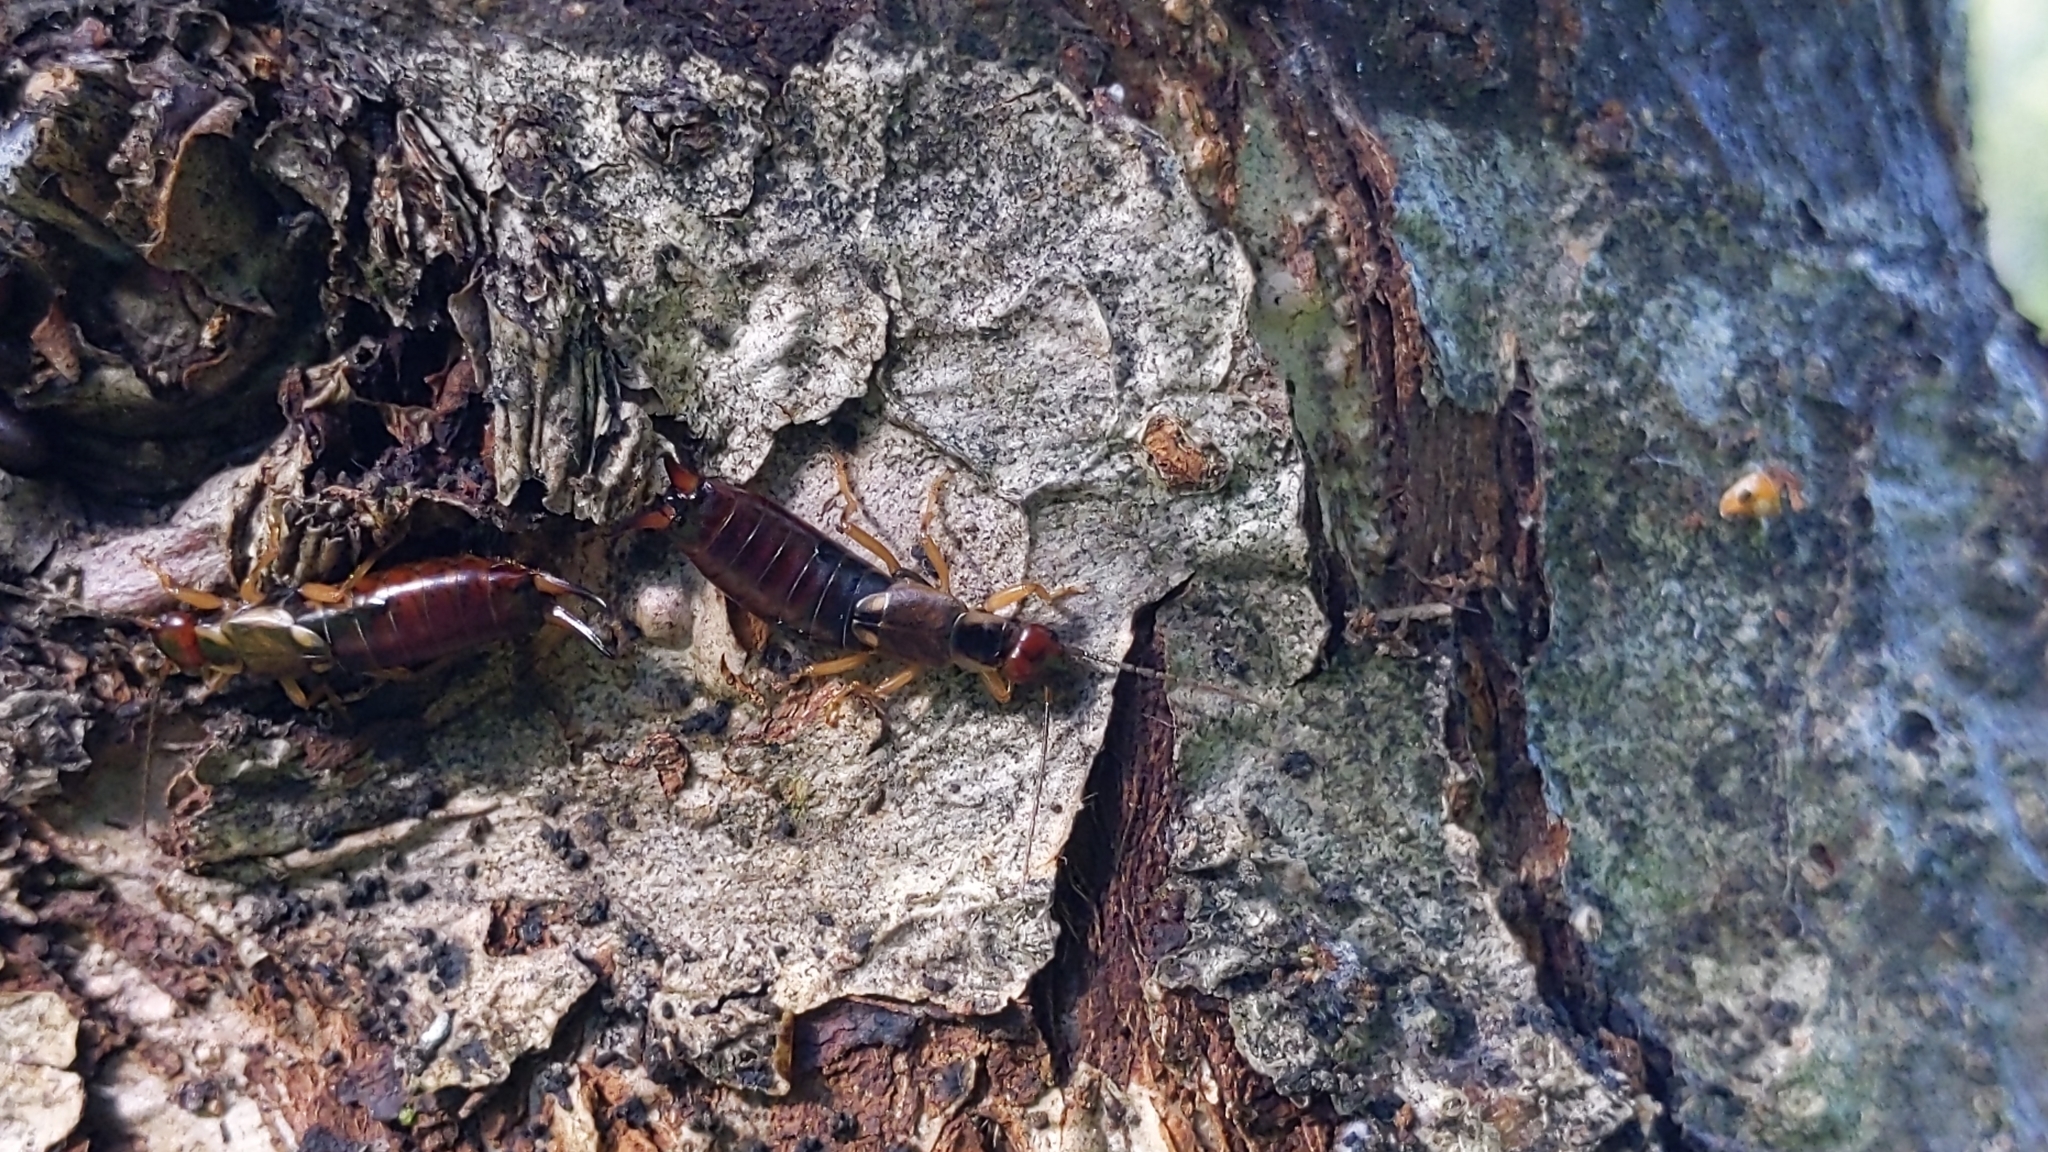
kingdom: Animalia
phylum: Arthropoda
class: Insecta
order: Dermaptera
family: Forficulidae
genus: Forficula
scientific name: Forficula
